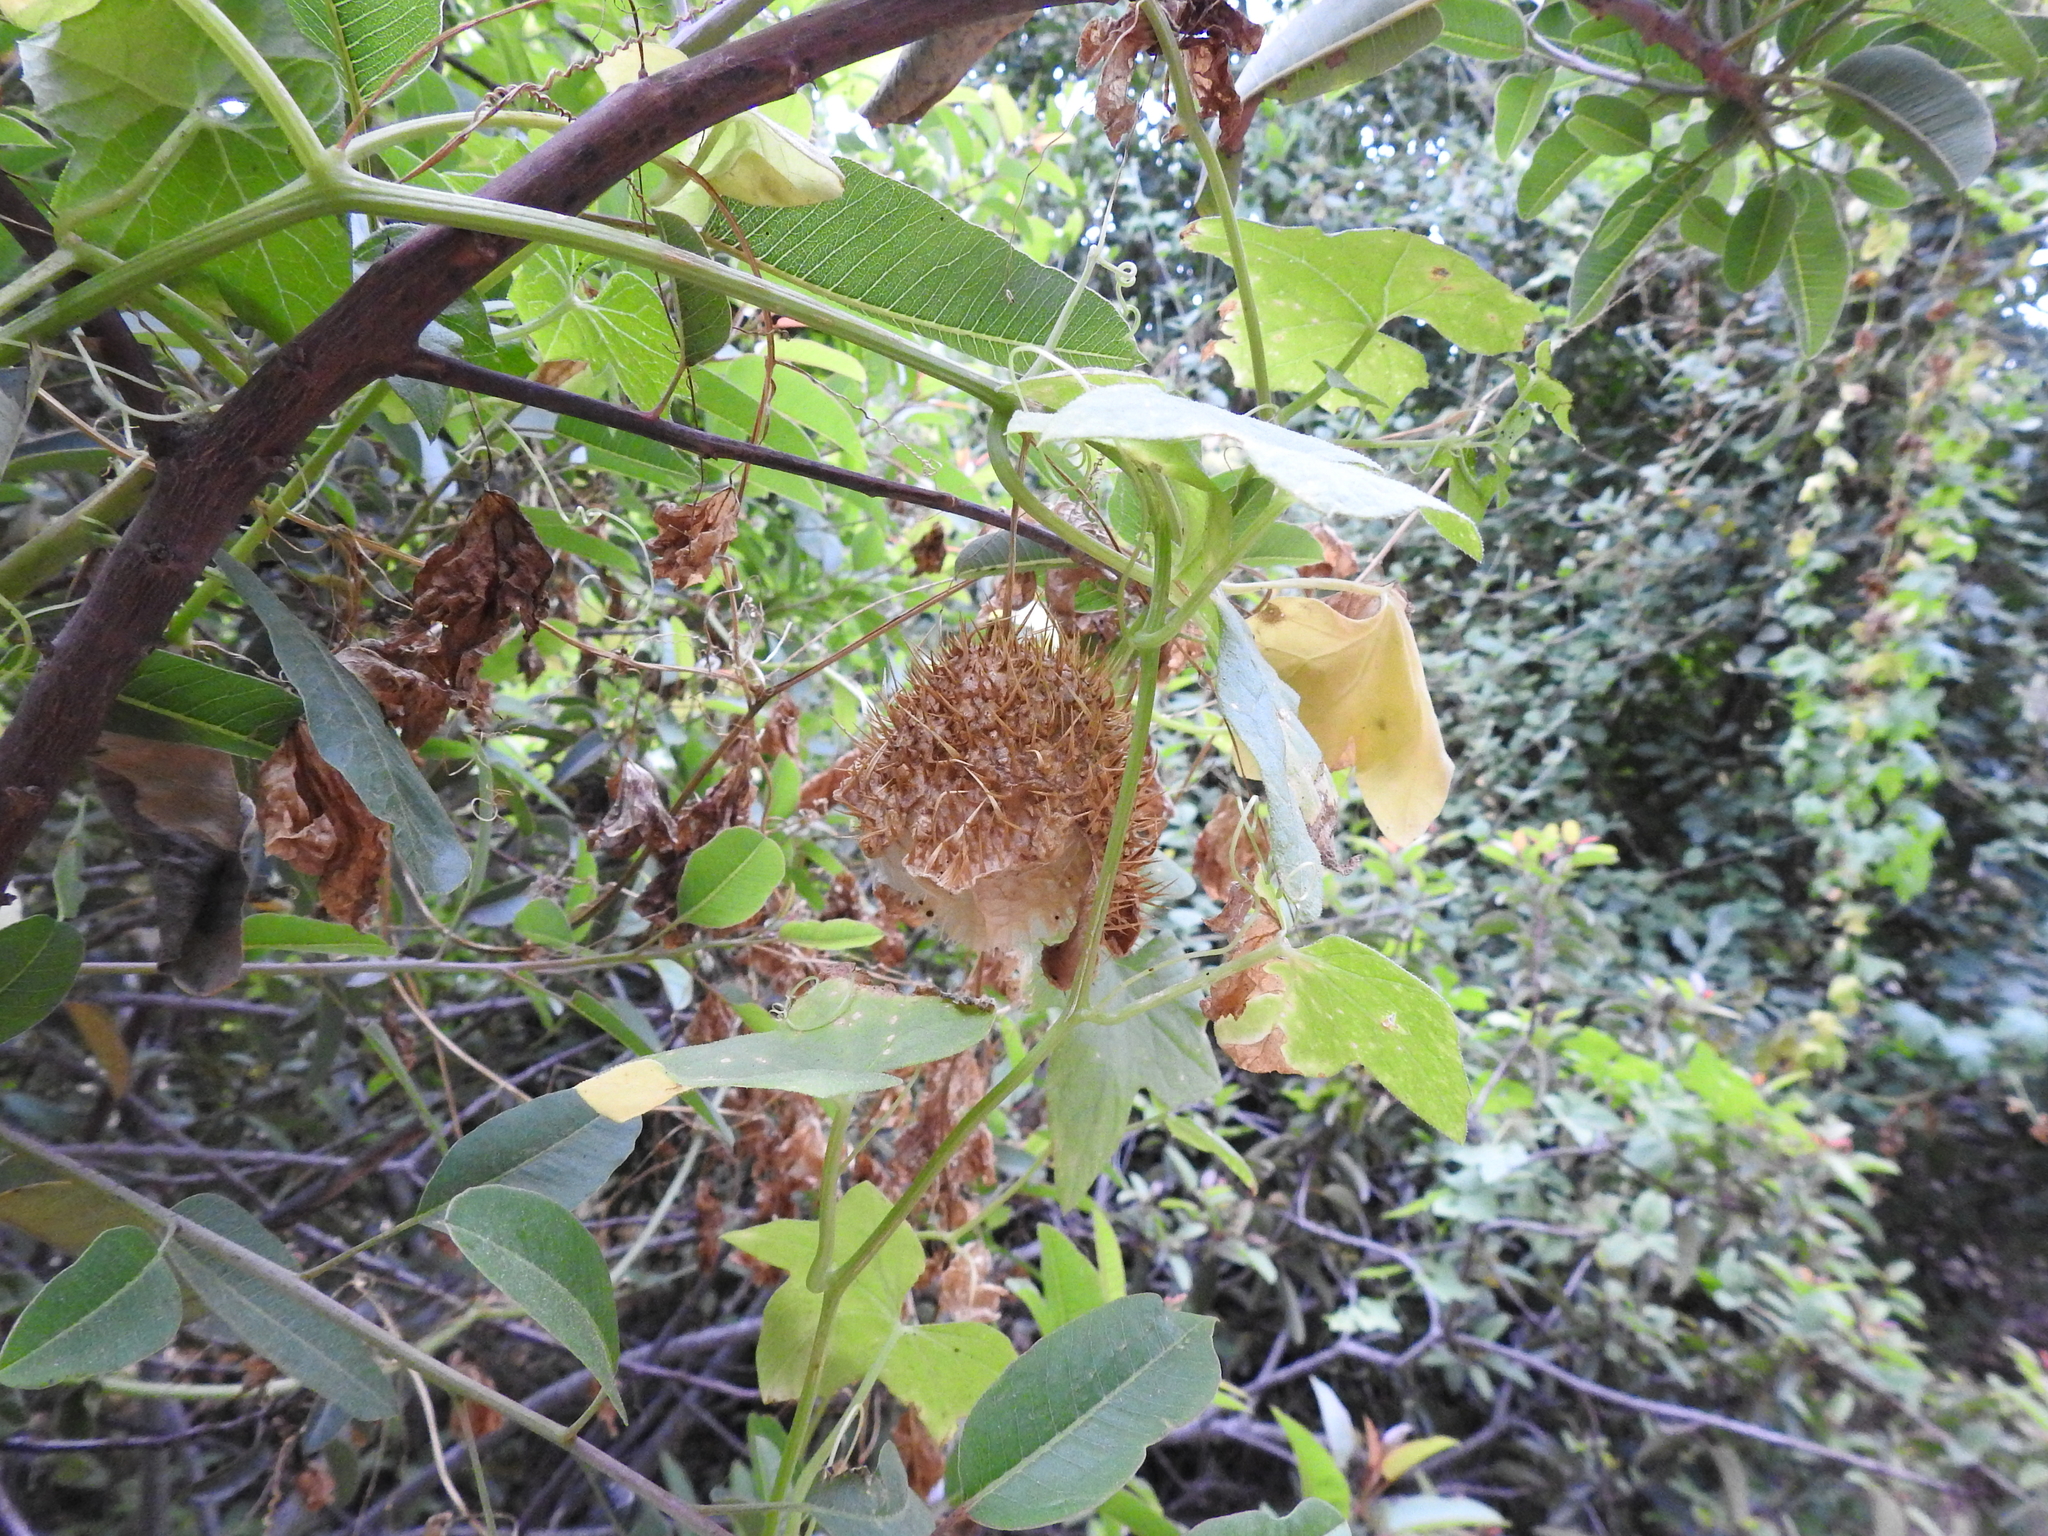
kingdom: Plantae
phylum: Tracheophyta
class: Magnoliopsida
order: Cucurbitales
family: Cucurbitaceae
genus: Marah
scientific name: Marah macrocarpa
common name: Cucamonga manroot
